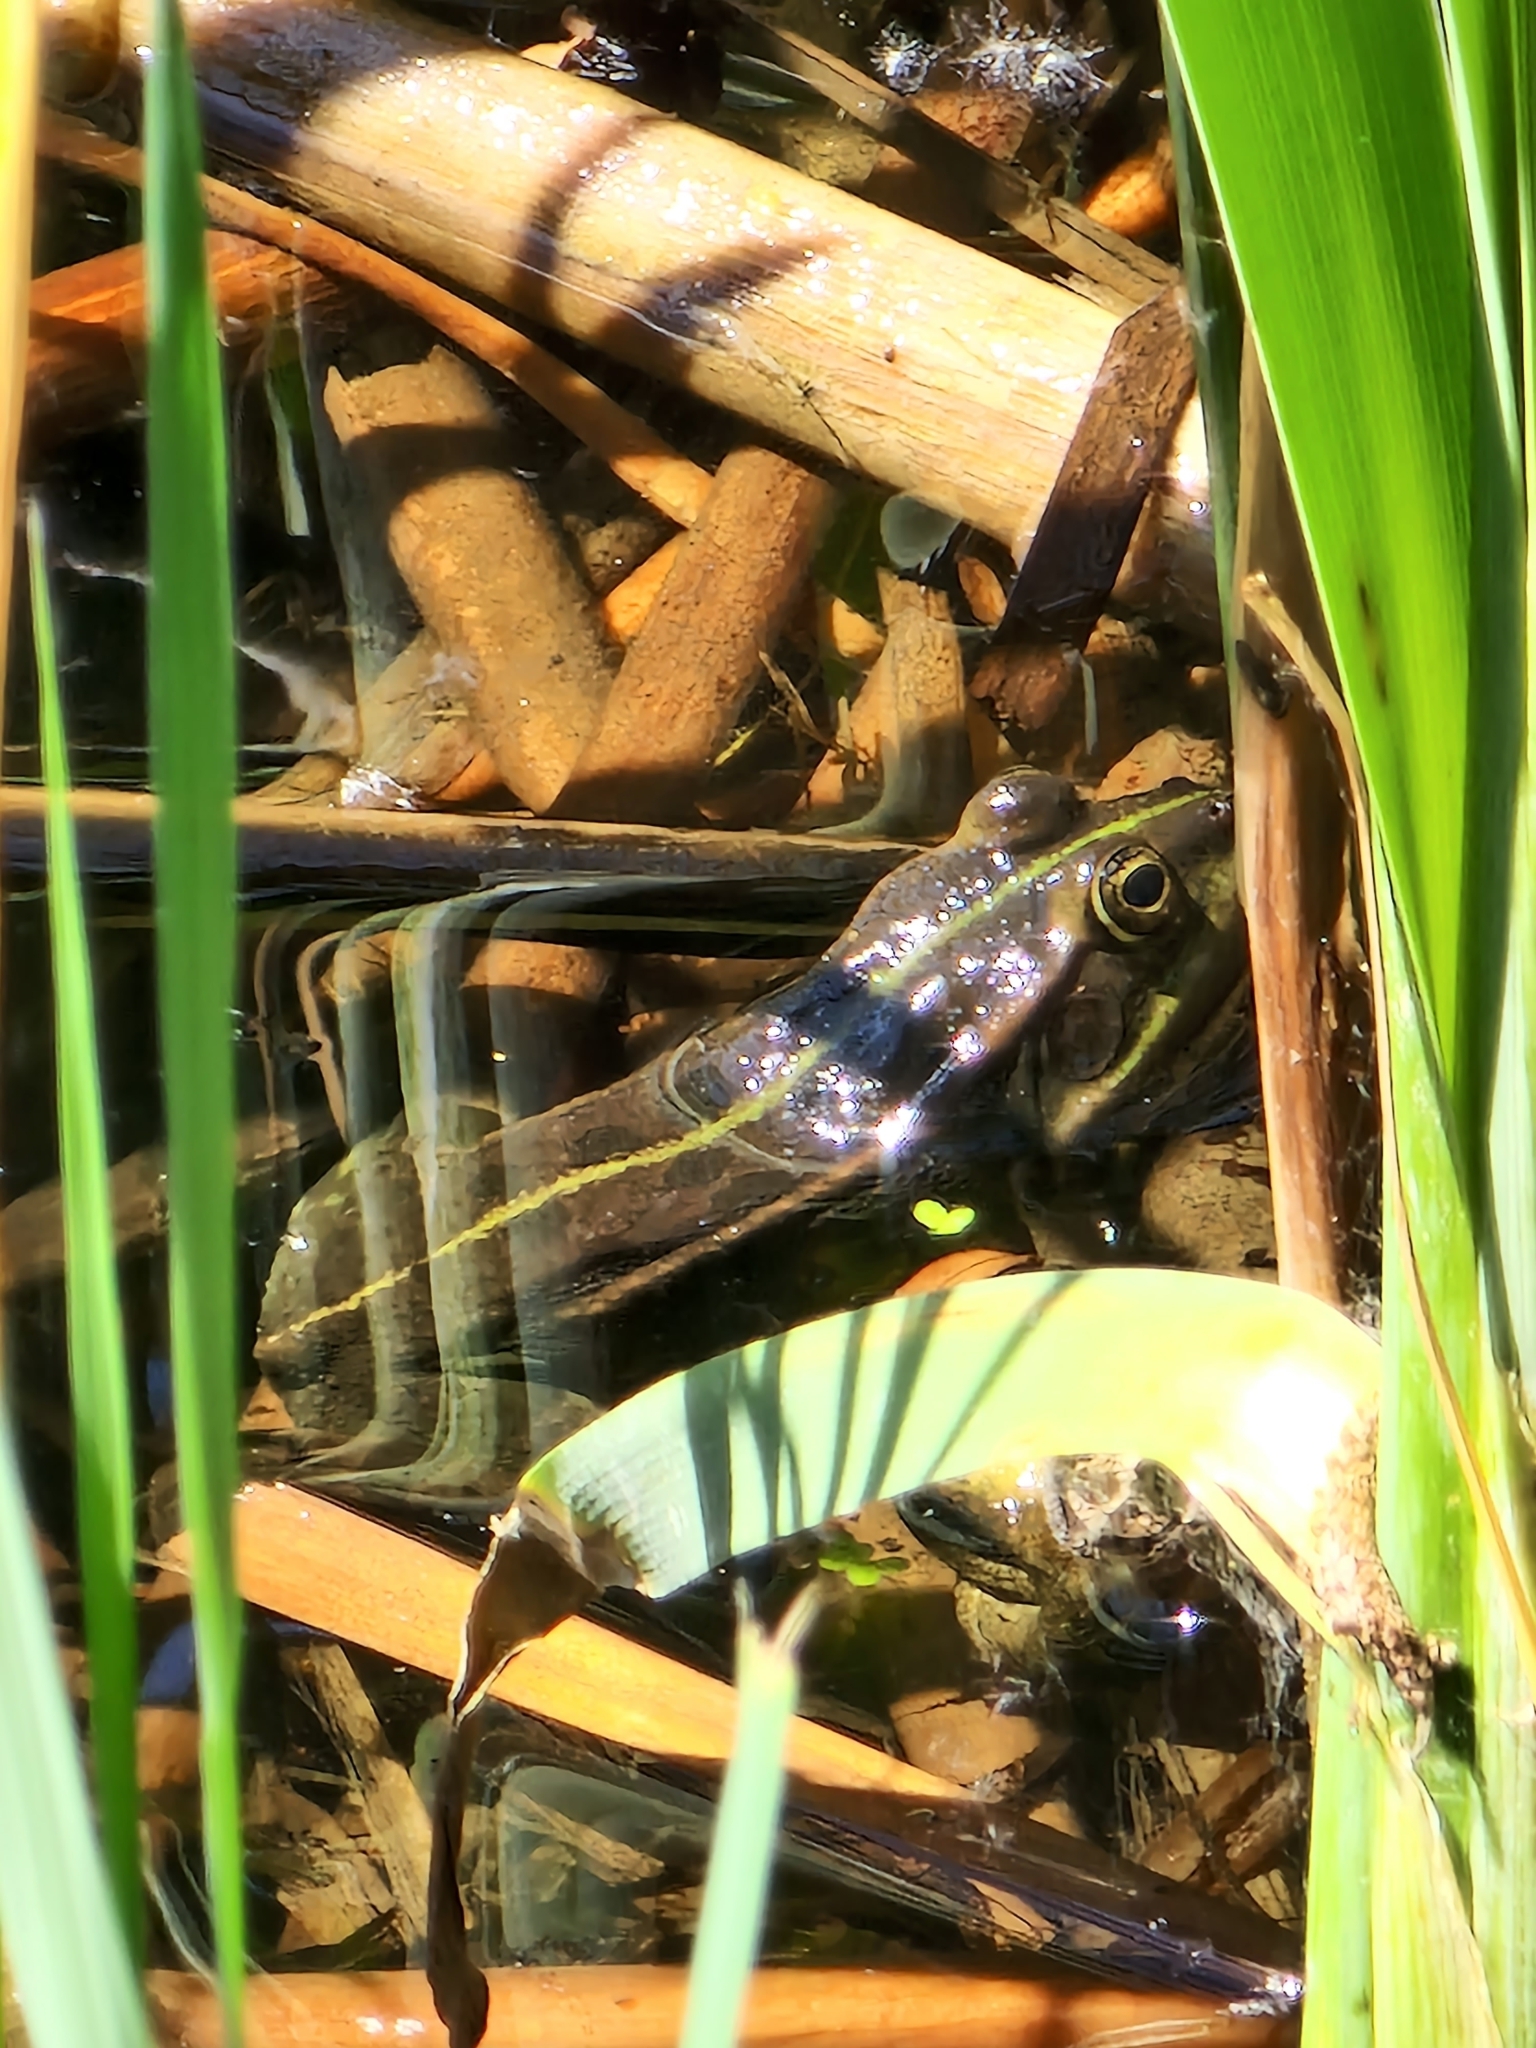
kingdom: Animalia
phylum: Chordata
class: Amphibia
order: Anura
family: Ranidae
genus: Pelophylax
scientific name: Pelophylax ridibundus
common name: Marsh frog
